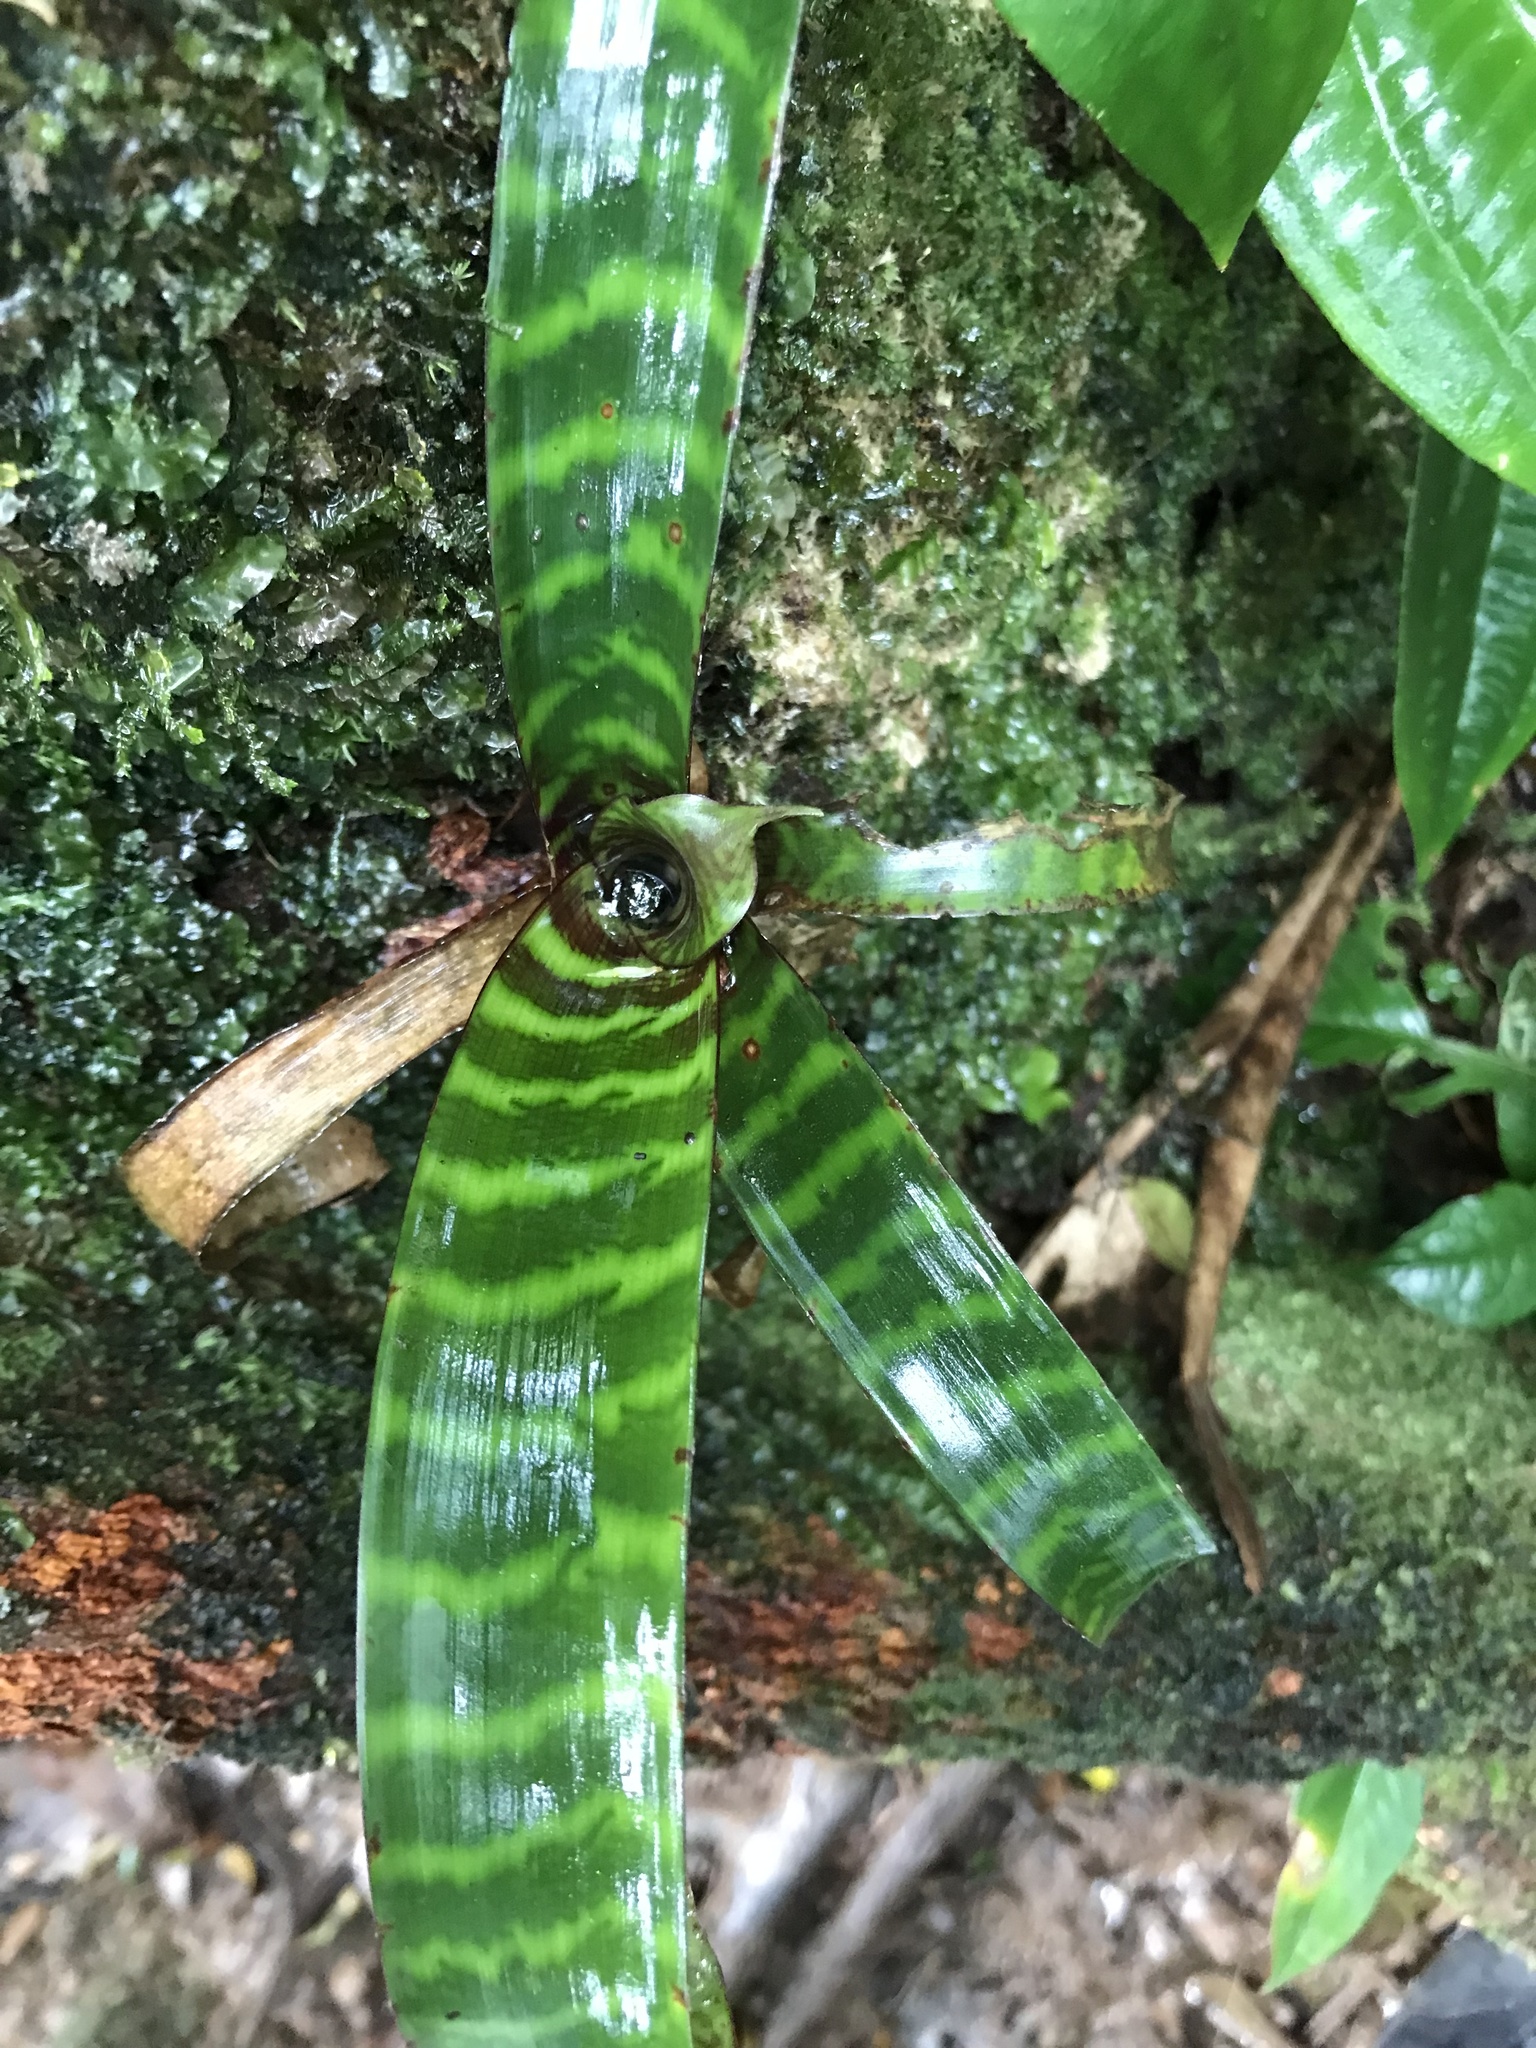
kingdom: Plantae
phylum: Tracheophyta
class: Liliopsida
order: Poales
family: Bromeliaceae
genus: Guzmania
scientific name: Guzmania musaica
